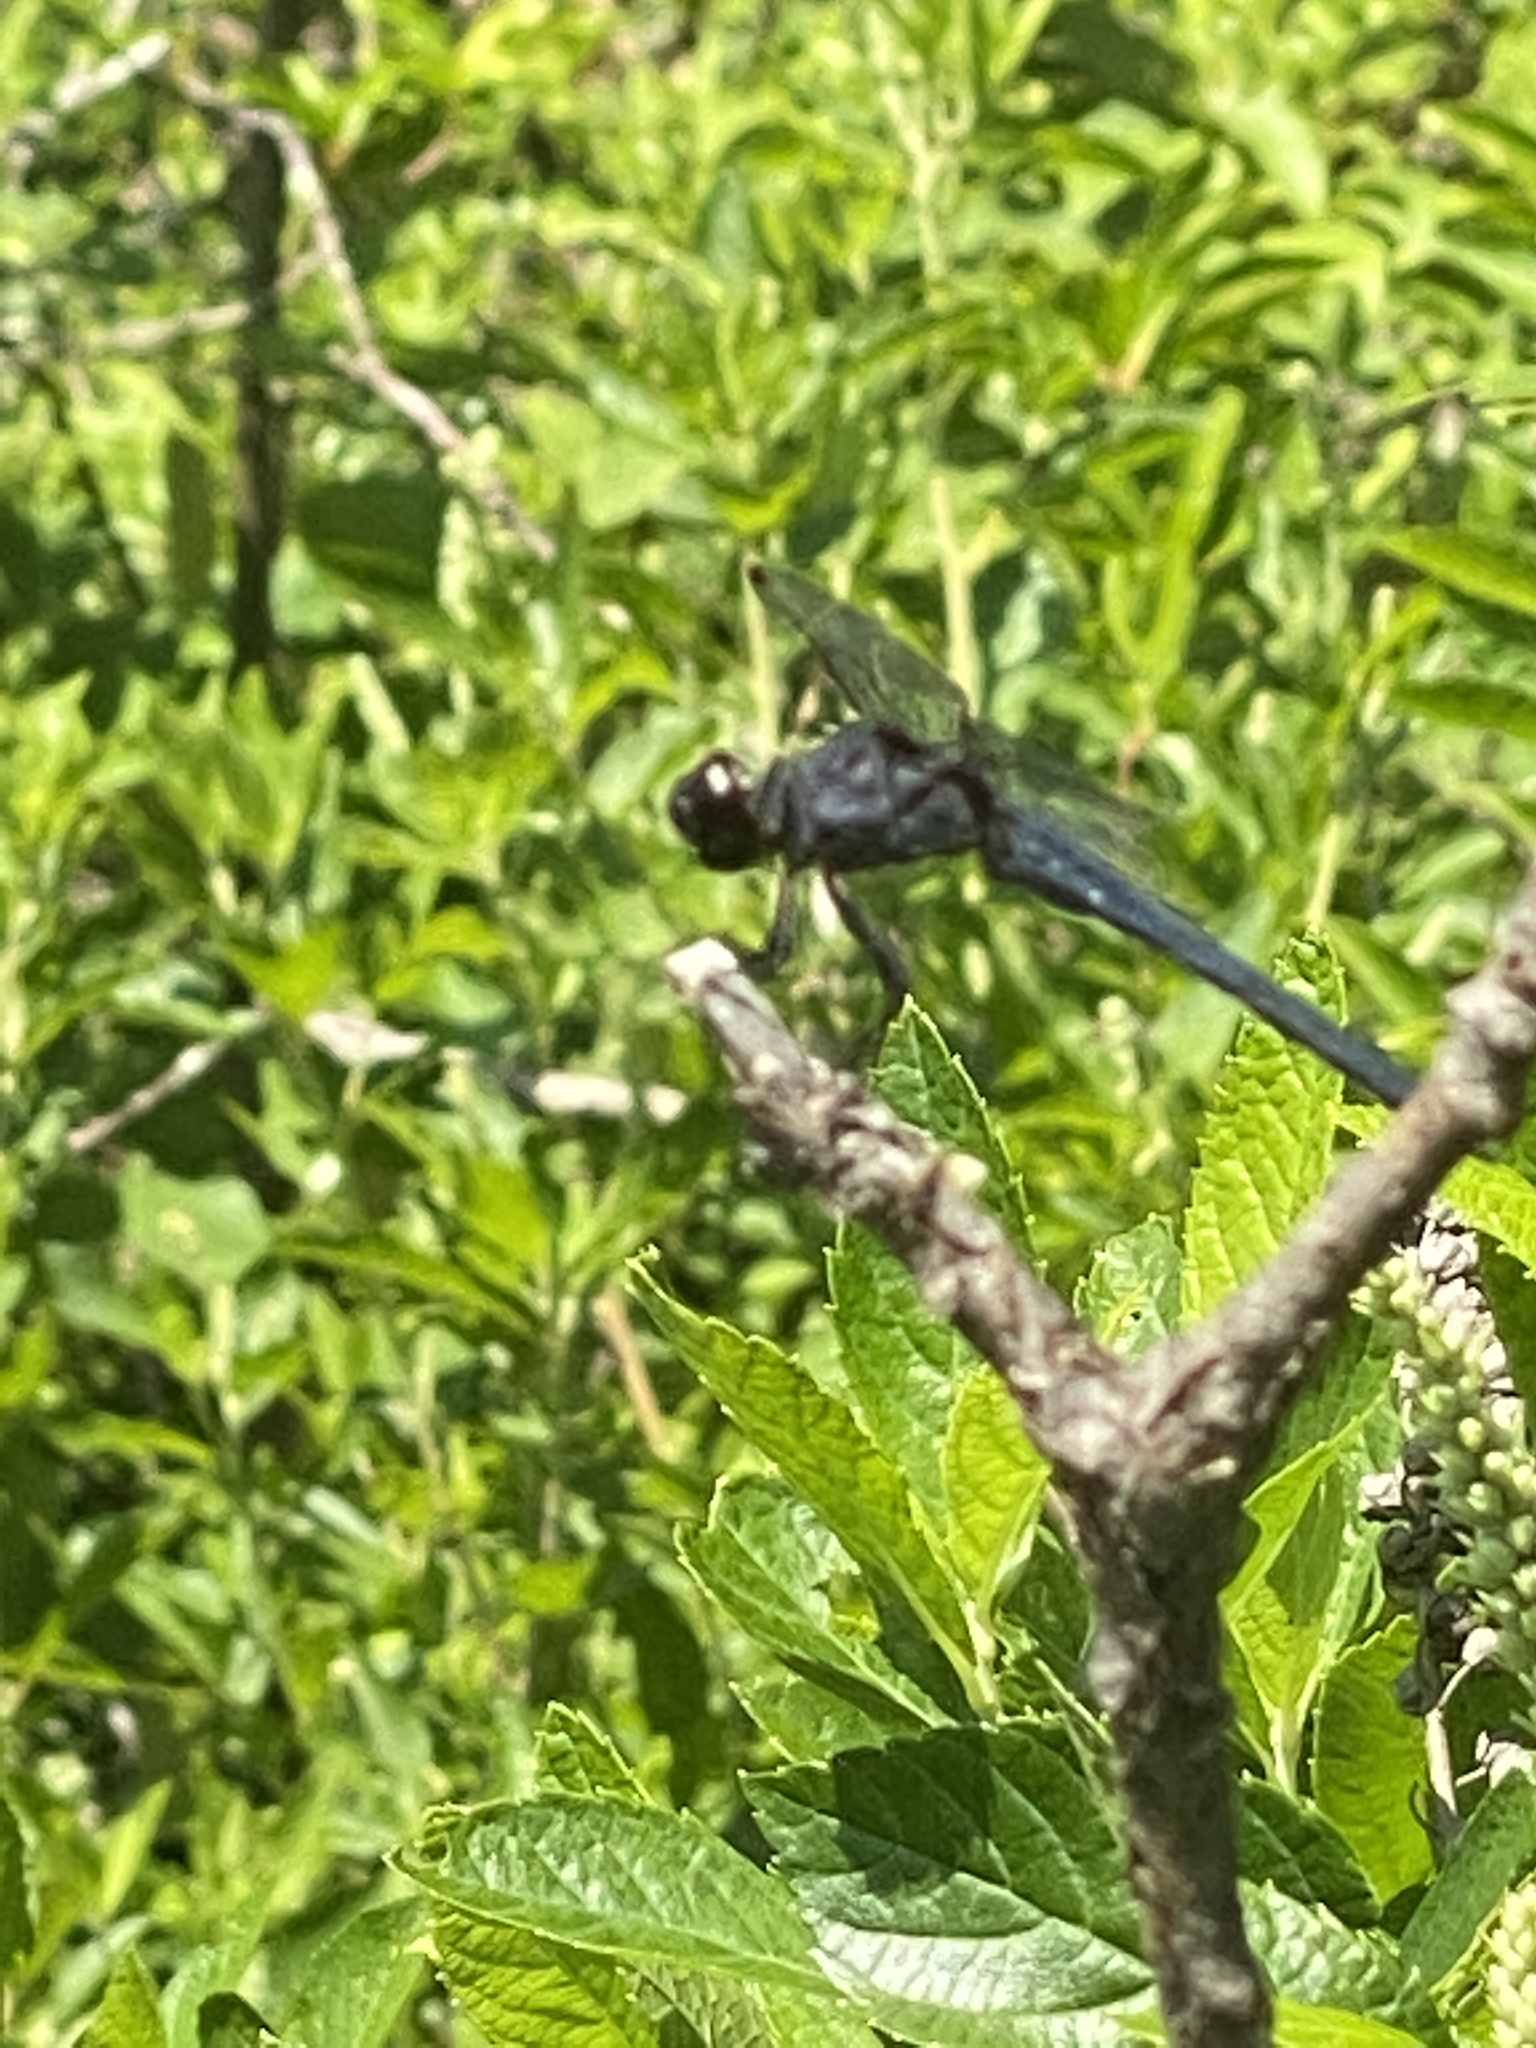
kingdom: Animalia
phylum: Arthropoda
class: Insecta
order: Odonata
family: Libellulidae
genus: Libellula
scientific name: Libellula incesta
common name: Slaty skimmer
